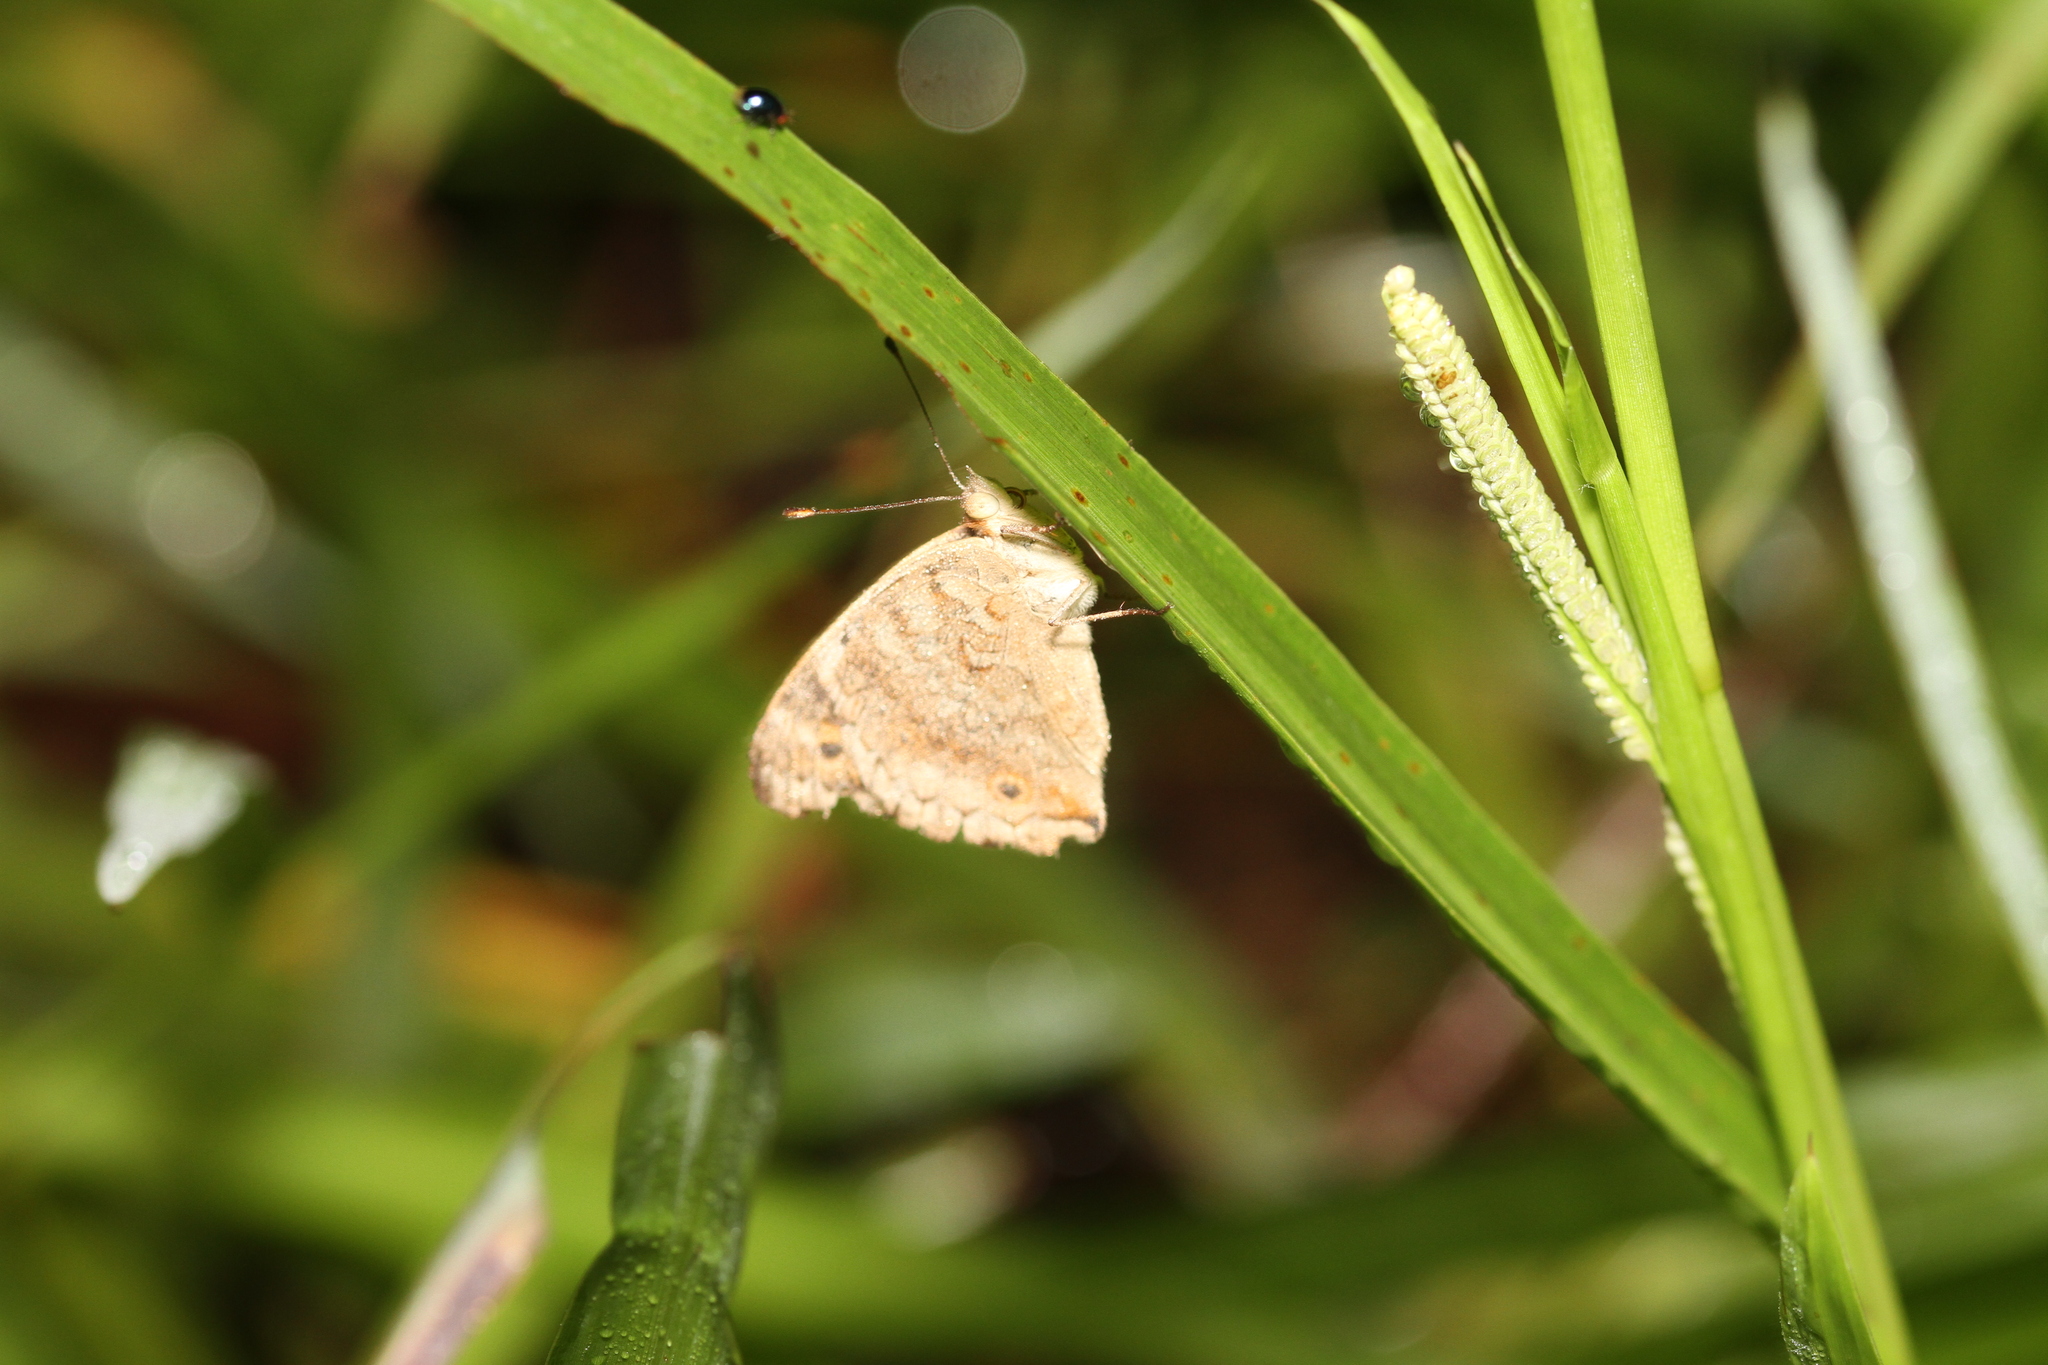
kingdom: Animalia
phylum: Arthropoda
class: Insecta
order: Lepidoptera
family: Nymphalidae
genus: Junonia
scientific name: Junonia orithya
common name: Blue pansy
